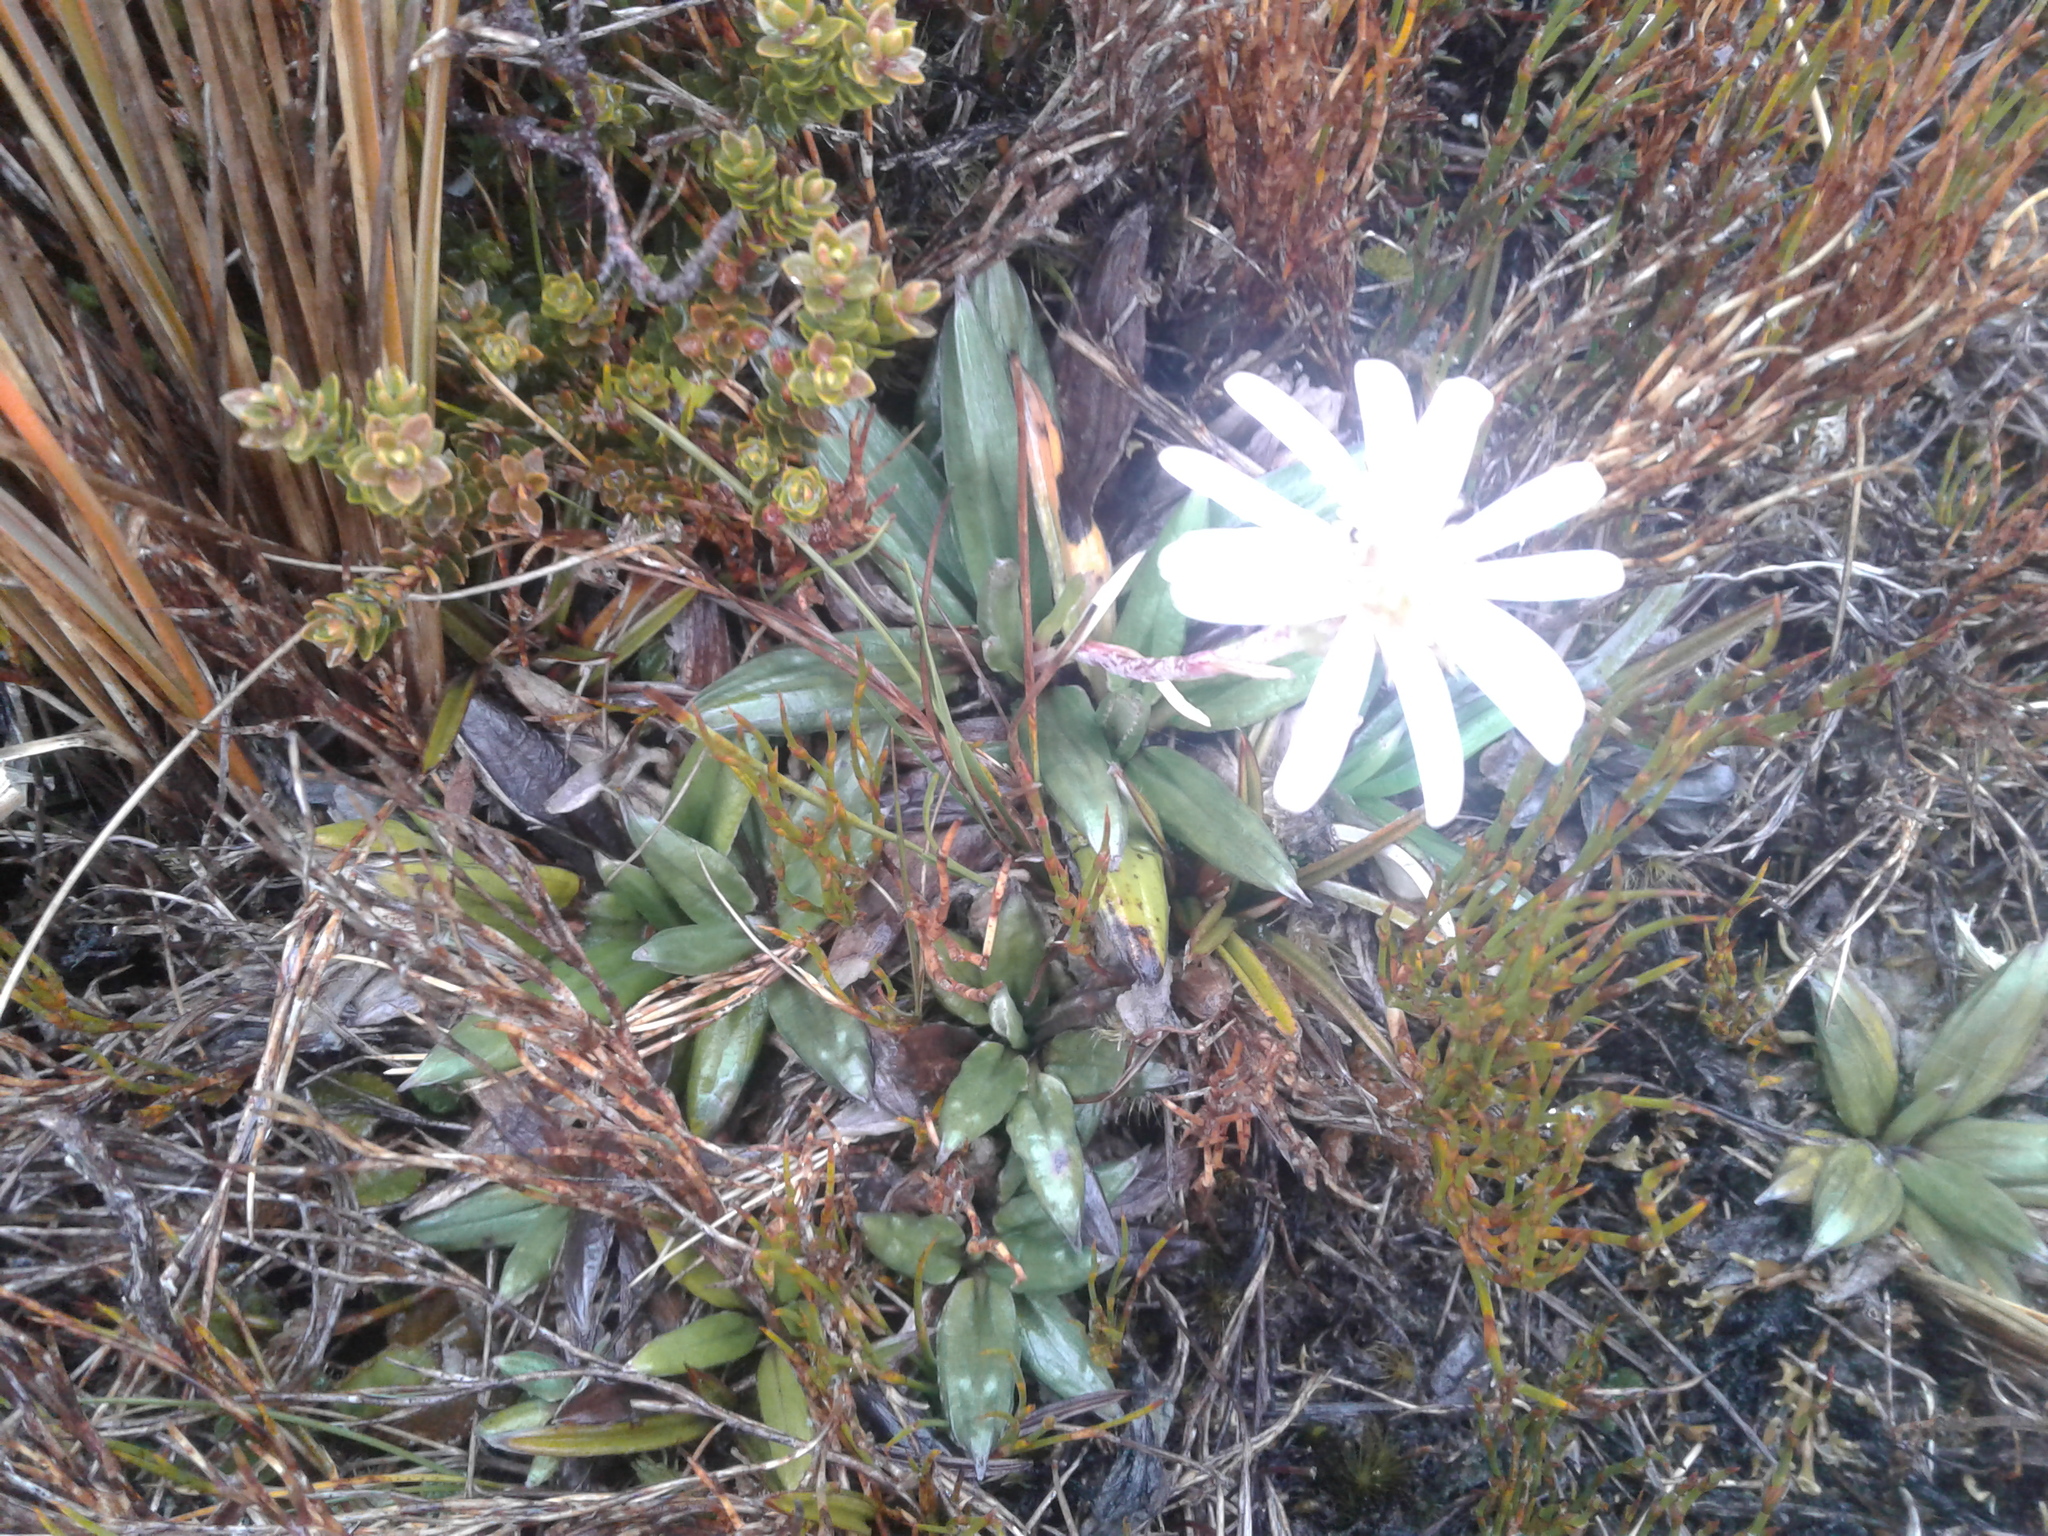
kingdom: Plantae
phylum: Tracheophyta
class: Magnoliopsida
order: Asterales
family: Asteraceae
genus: Celmisia
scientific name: Celmisia dubia
